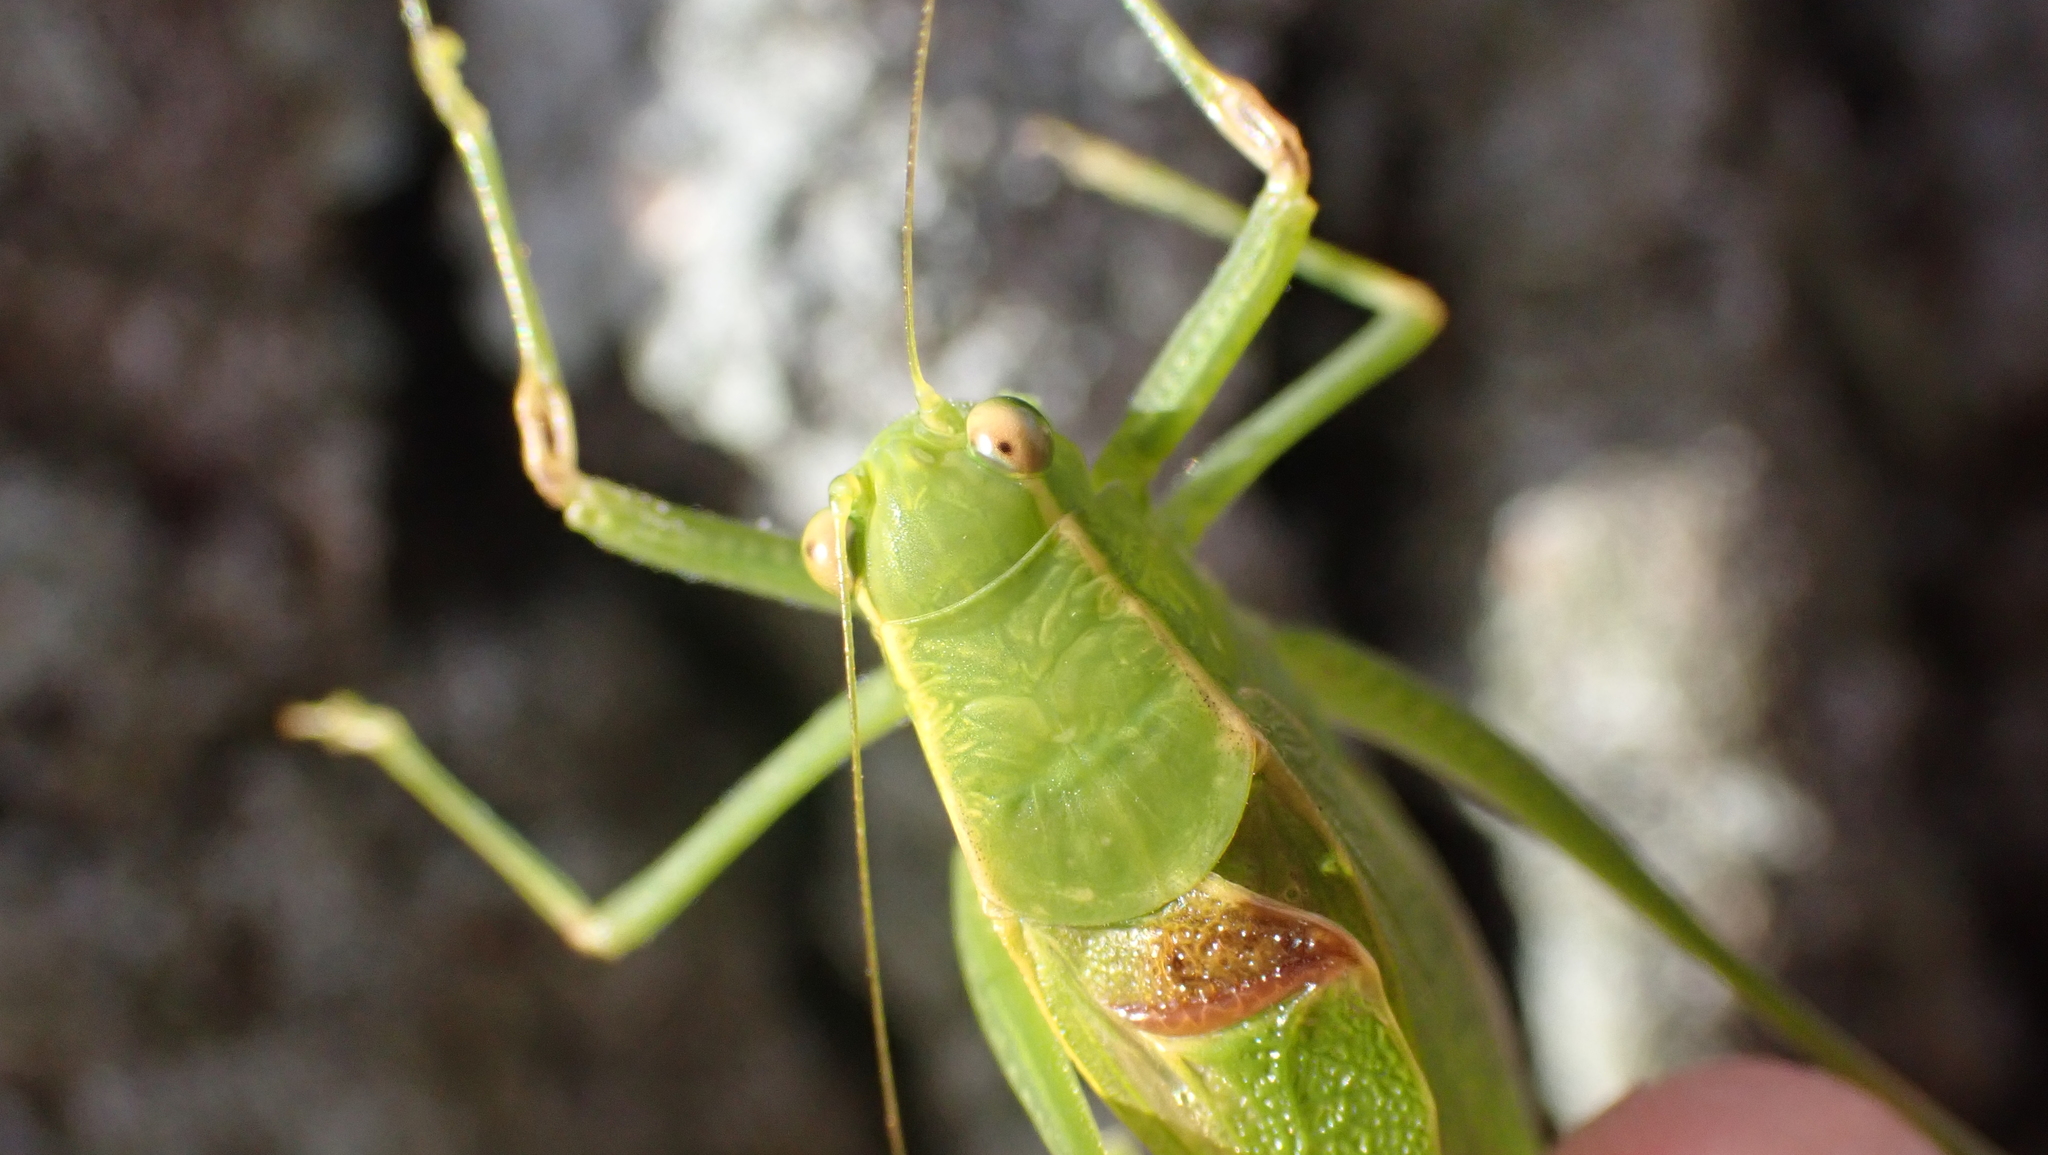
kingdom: Animalia
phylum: Arthropoda
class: Insecta
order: Orthoptera
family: Tettigoniidae
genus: Microcentrum
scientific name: Microcentrum retinerve
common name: Angular-winged katydid
